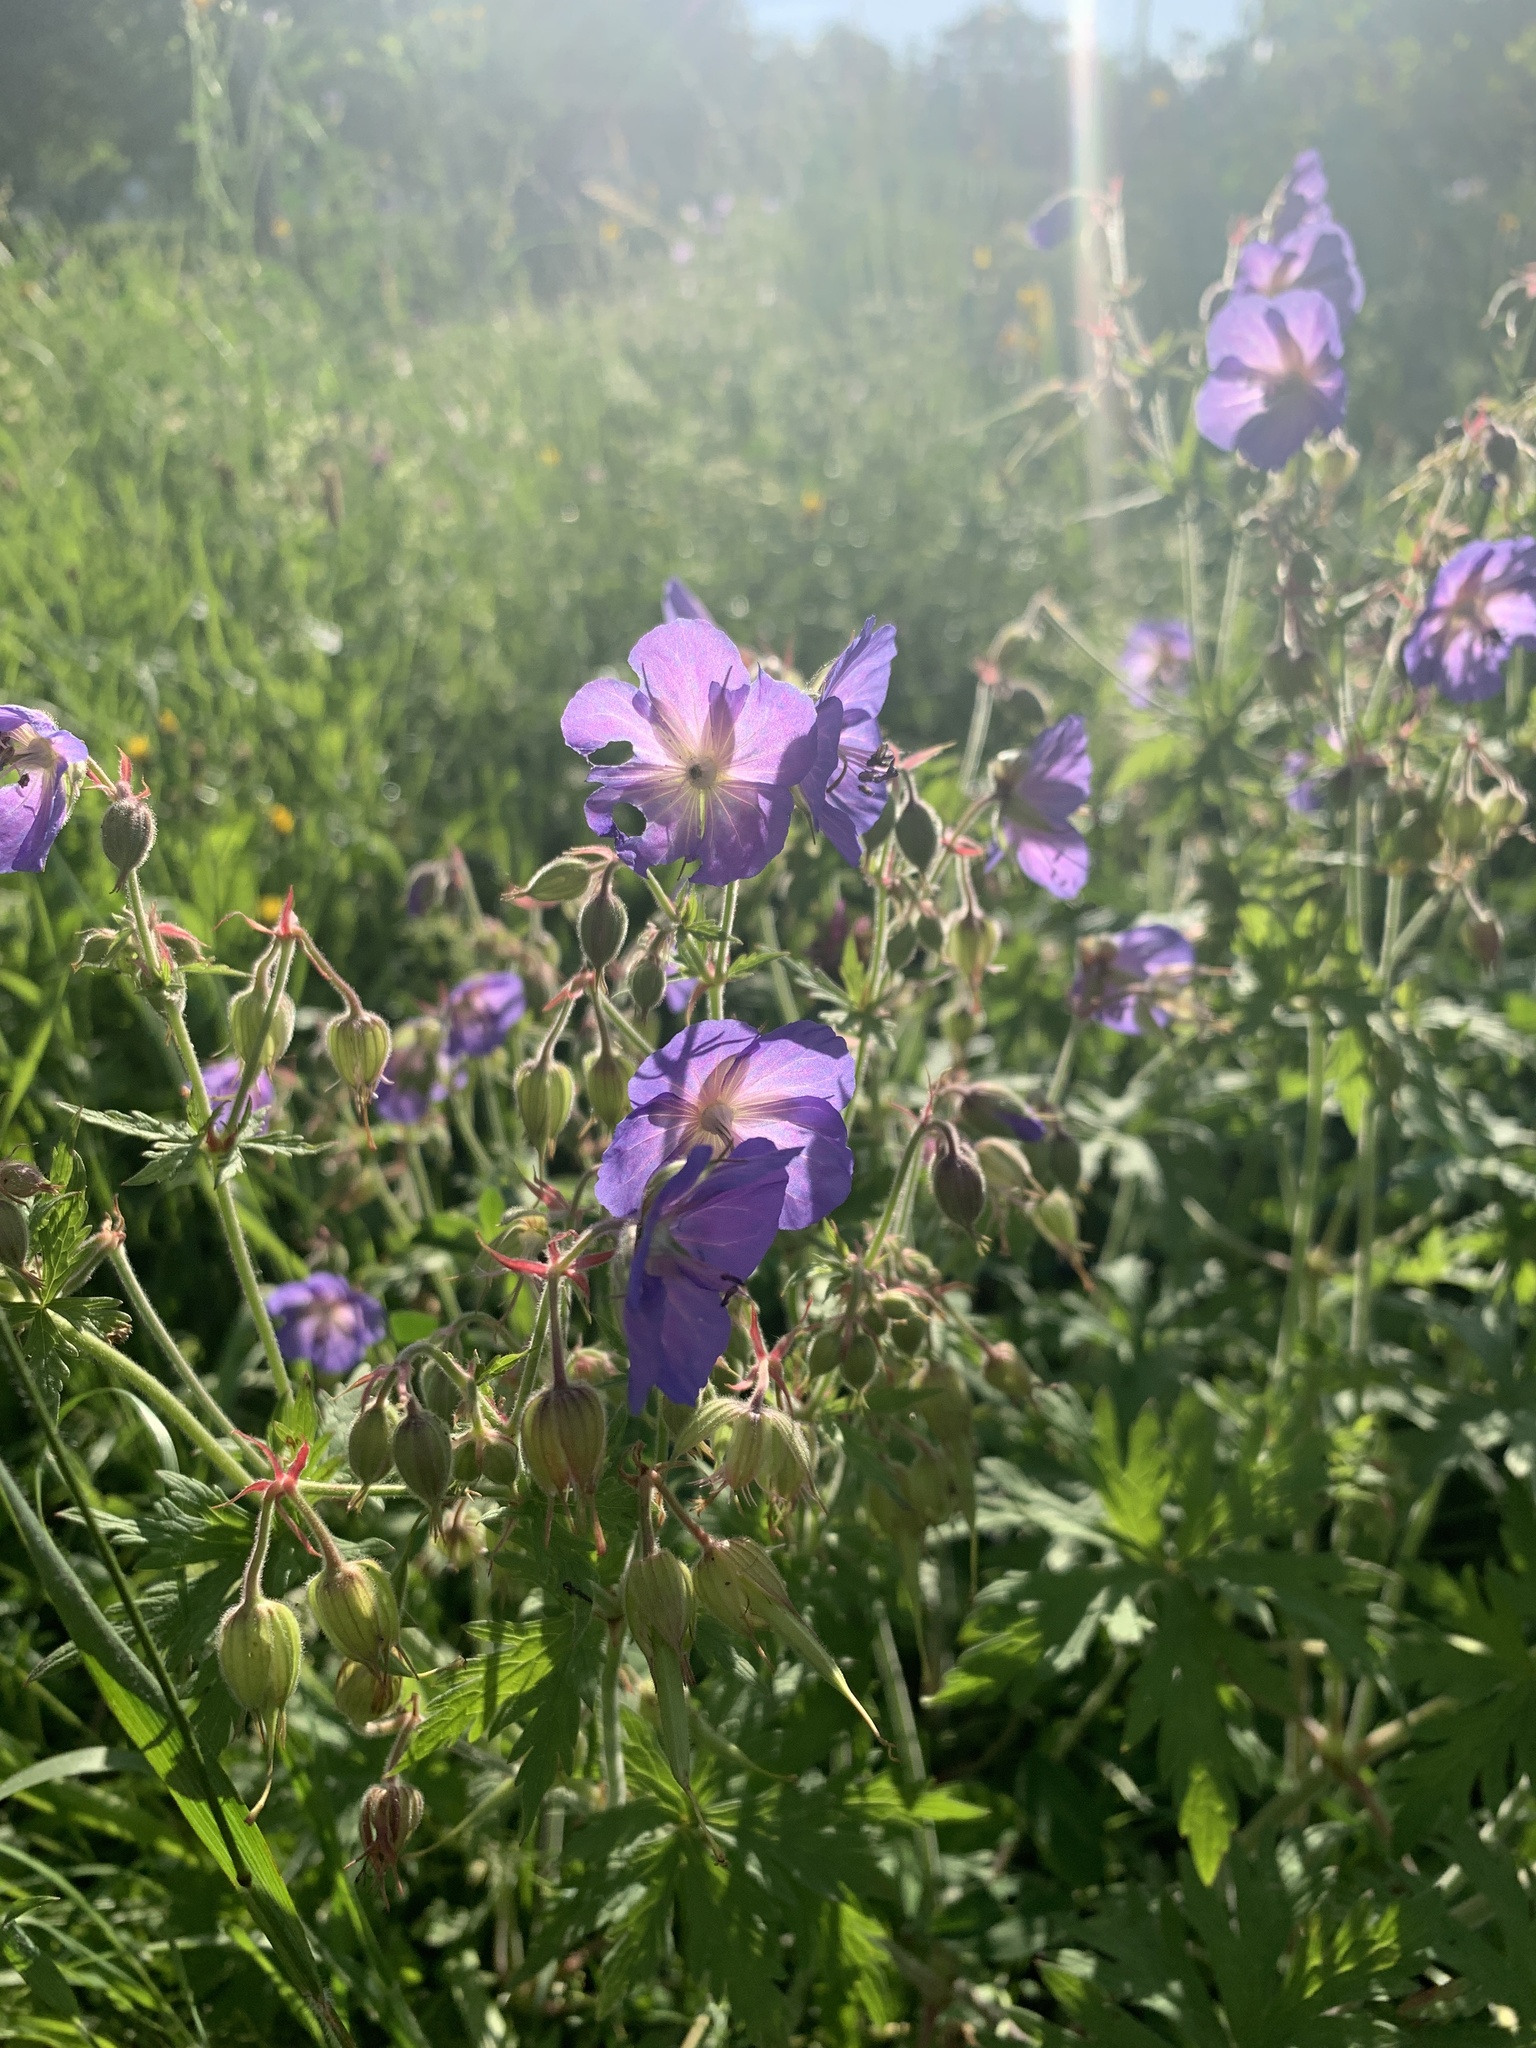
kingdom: Plantae
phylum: Tracheophyta
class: Magnoliopsida
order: Geraniales
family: Geraniaceae
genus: Geranium
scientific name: Geranium pratense
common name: Meadow crane's-bill
